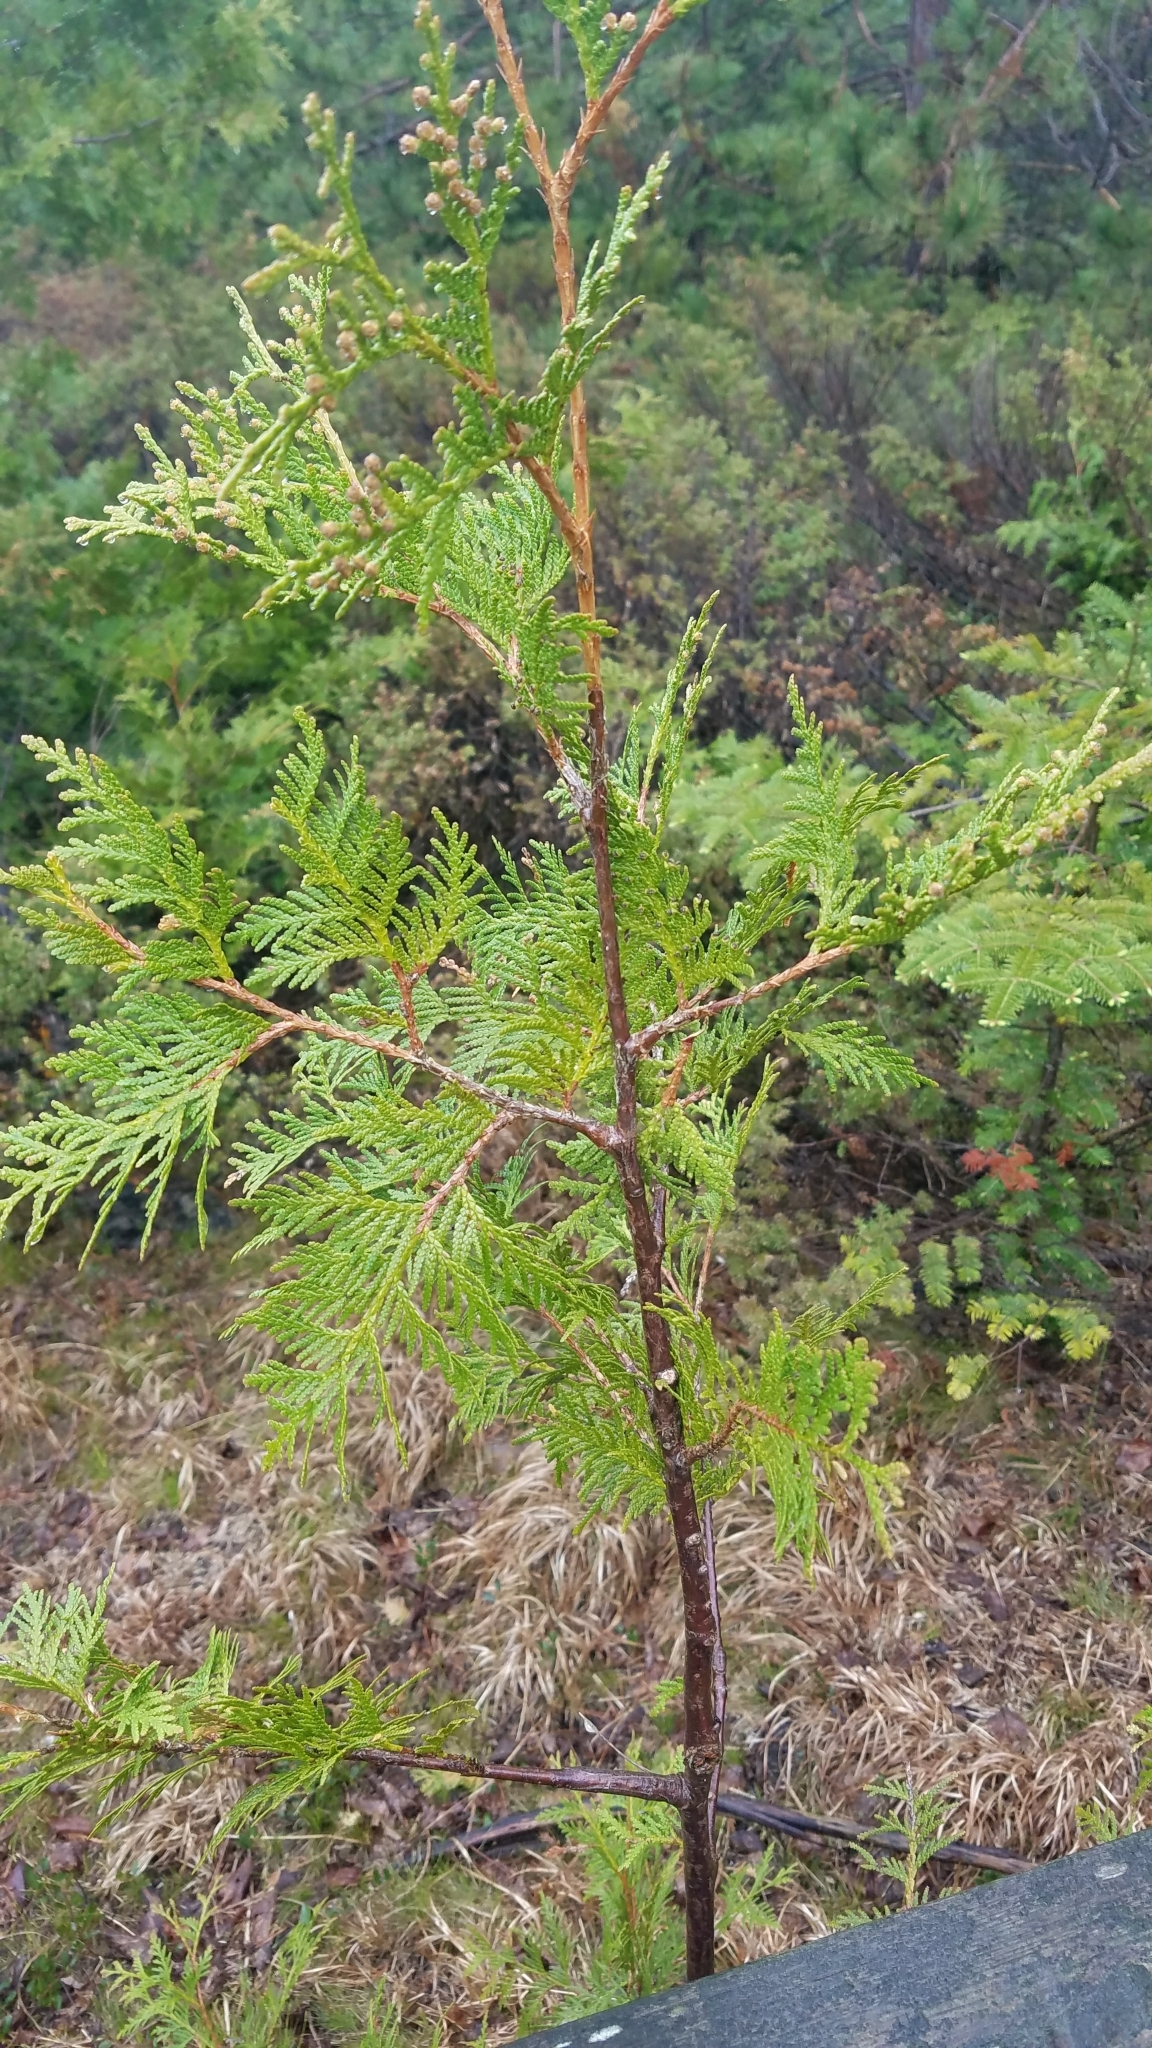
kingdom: Plantae
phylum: Tracheophyta
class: Pinopsida
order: Pinales
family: Cupressaceae
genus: Thuja
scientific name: Thuja occidentalis
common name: Northern white-cedar
